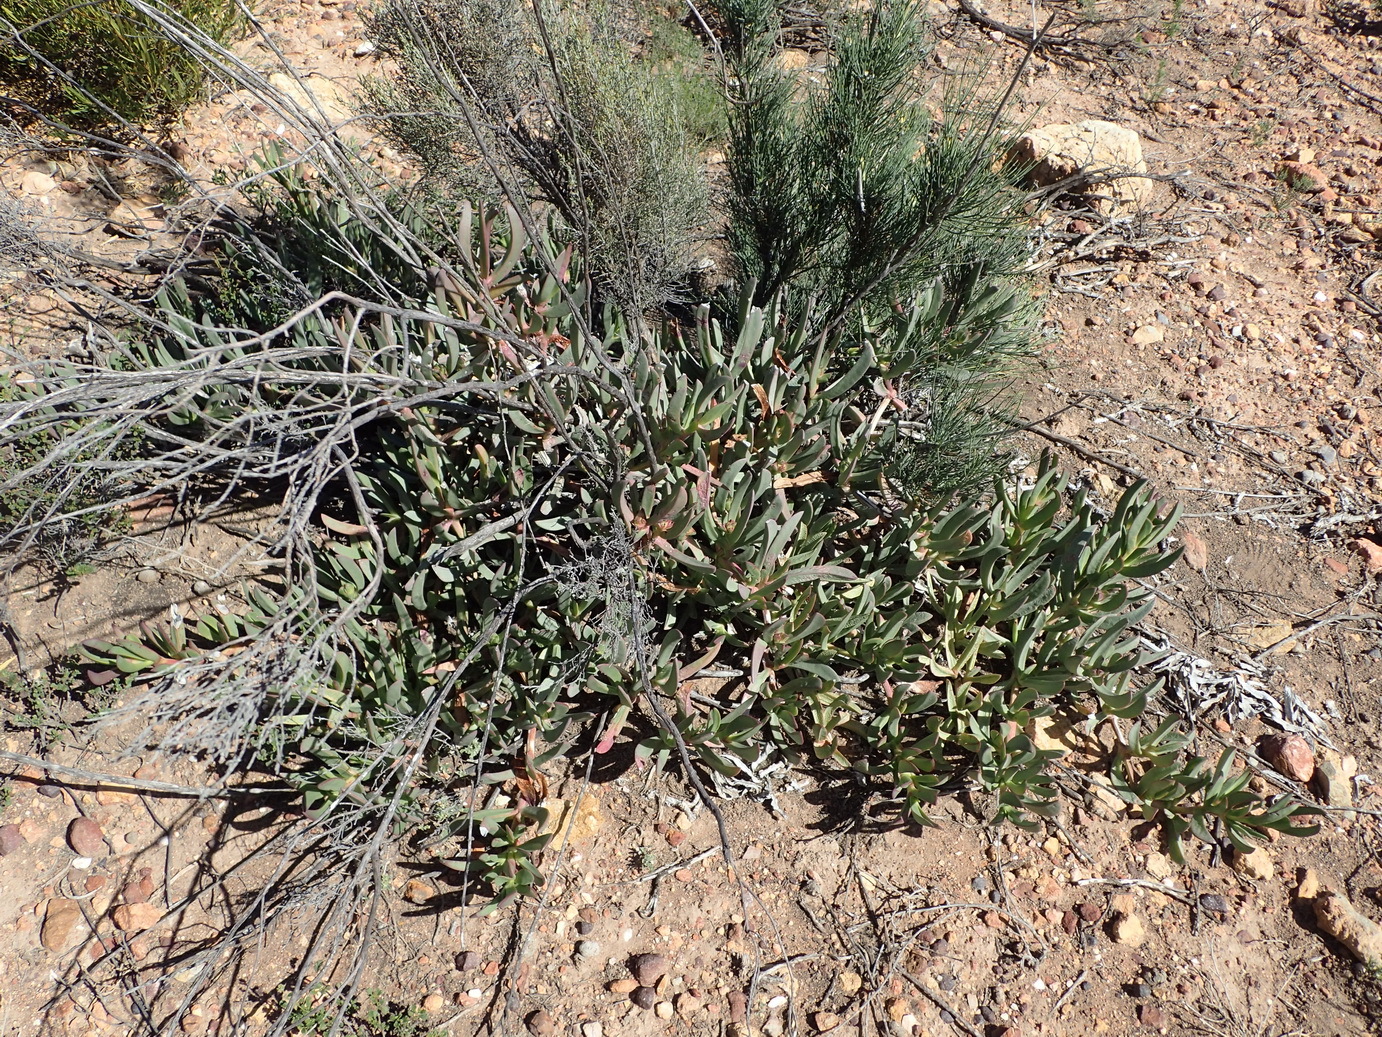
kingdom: Plantae
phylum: Tracheophyta
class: Magnoliopsida
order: Caryophyllales
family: Aizoaceae
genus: Carpobrotus
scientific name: Carpobrotus mellei
